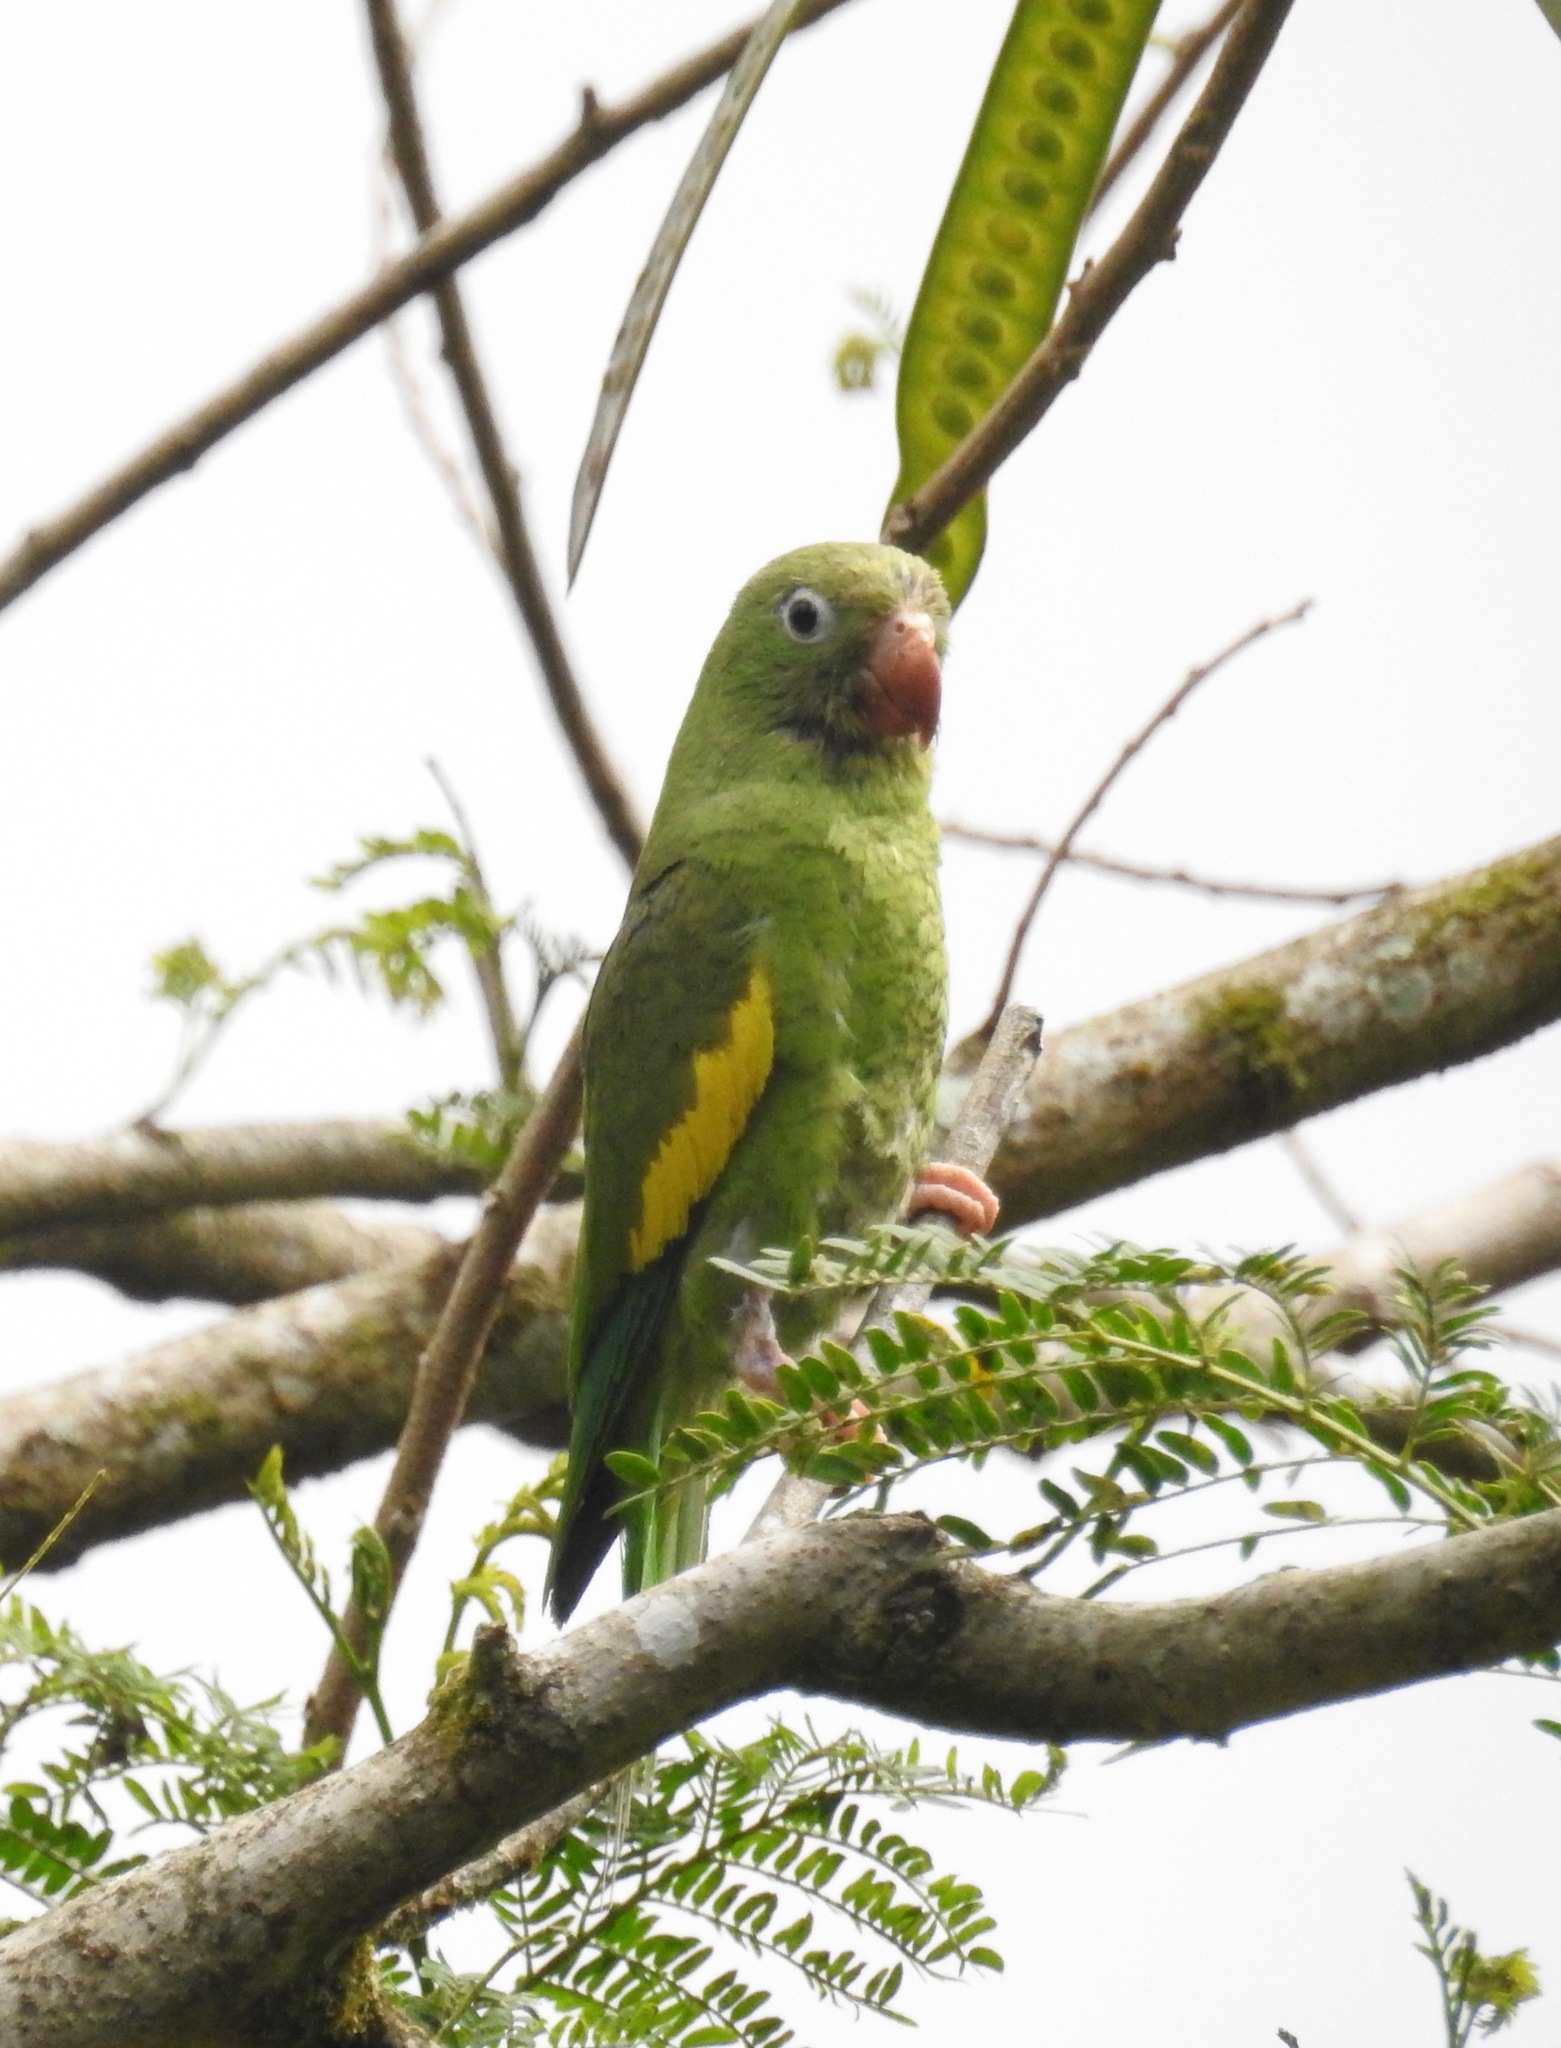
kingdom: Animalia
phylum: Chordata
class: Aves
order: Psittaciformes
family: Psittacidae
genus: Brotogeris
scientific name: Brotogeris chiriri
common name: Yellow-chevroned parakeet
